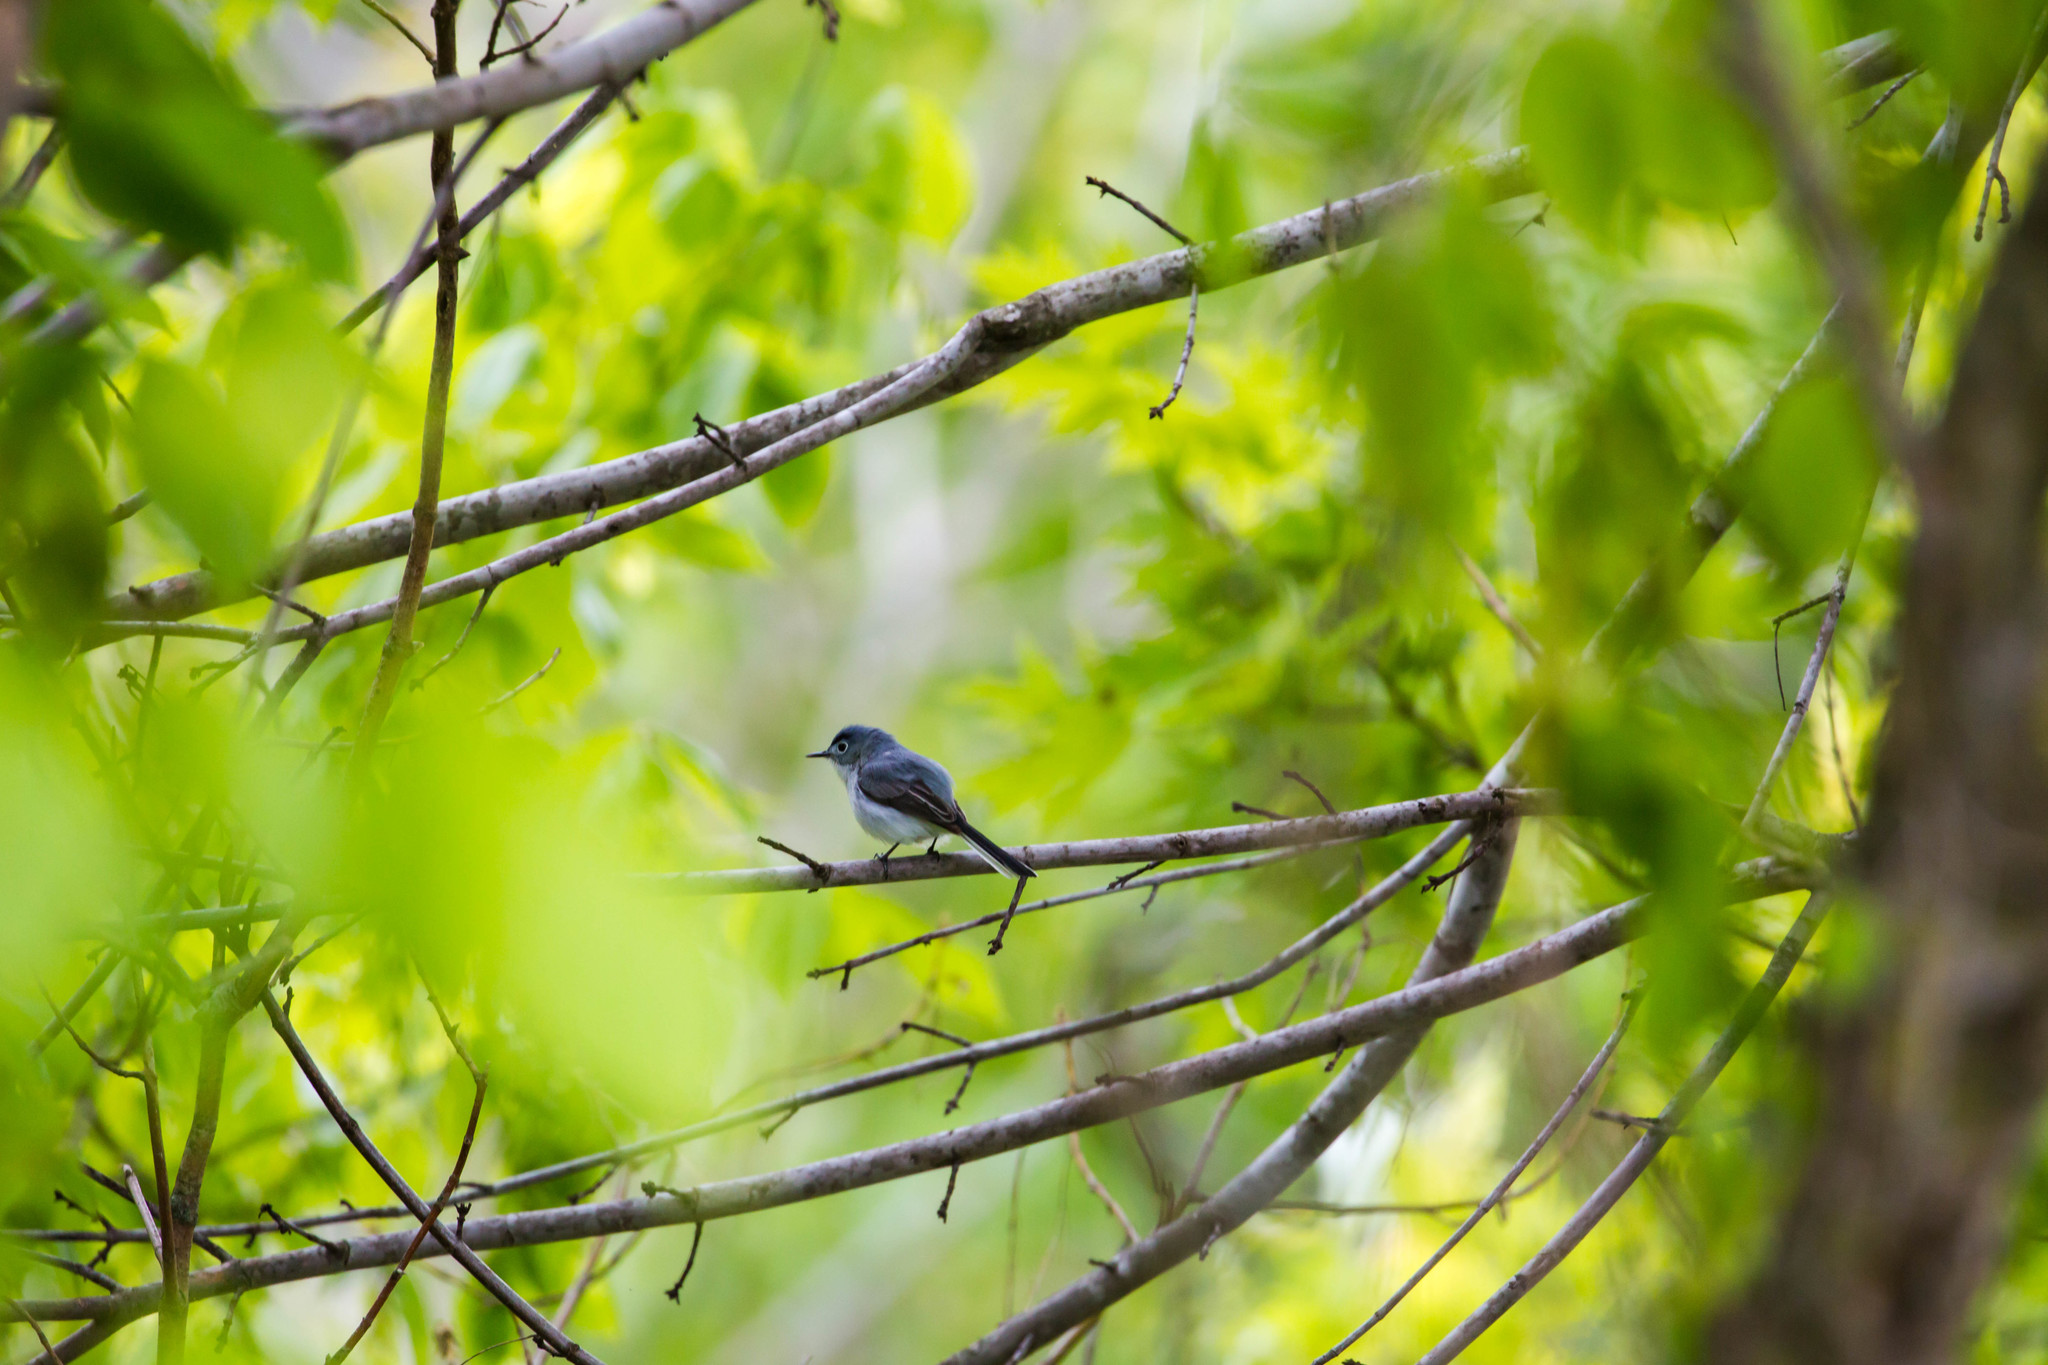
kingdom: Animalia
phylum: Chordata
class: Aves
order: Passeriformes
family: Polioptilidae
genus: Polioptila
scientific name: Polioptila caerulea
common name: Blue-gray gnatcatcher
